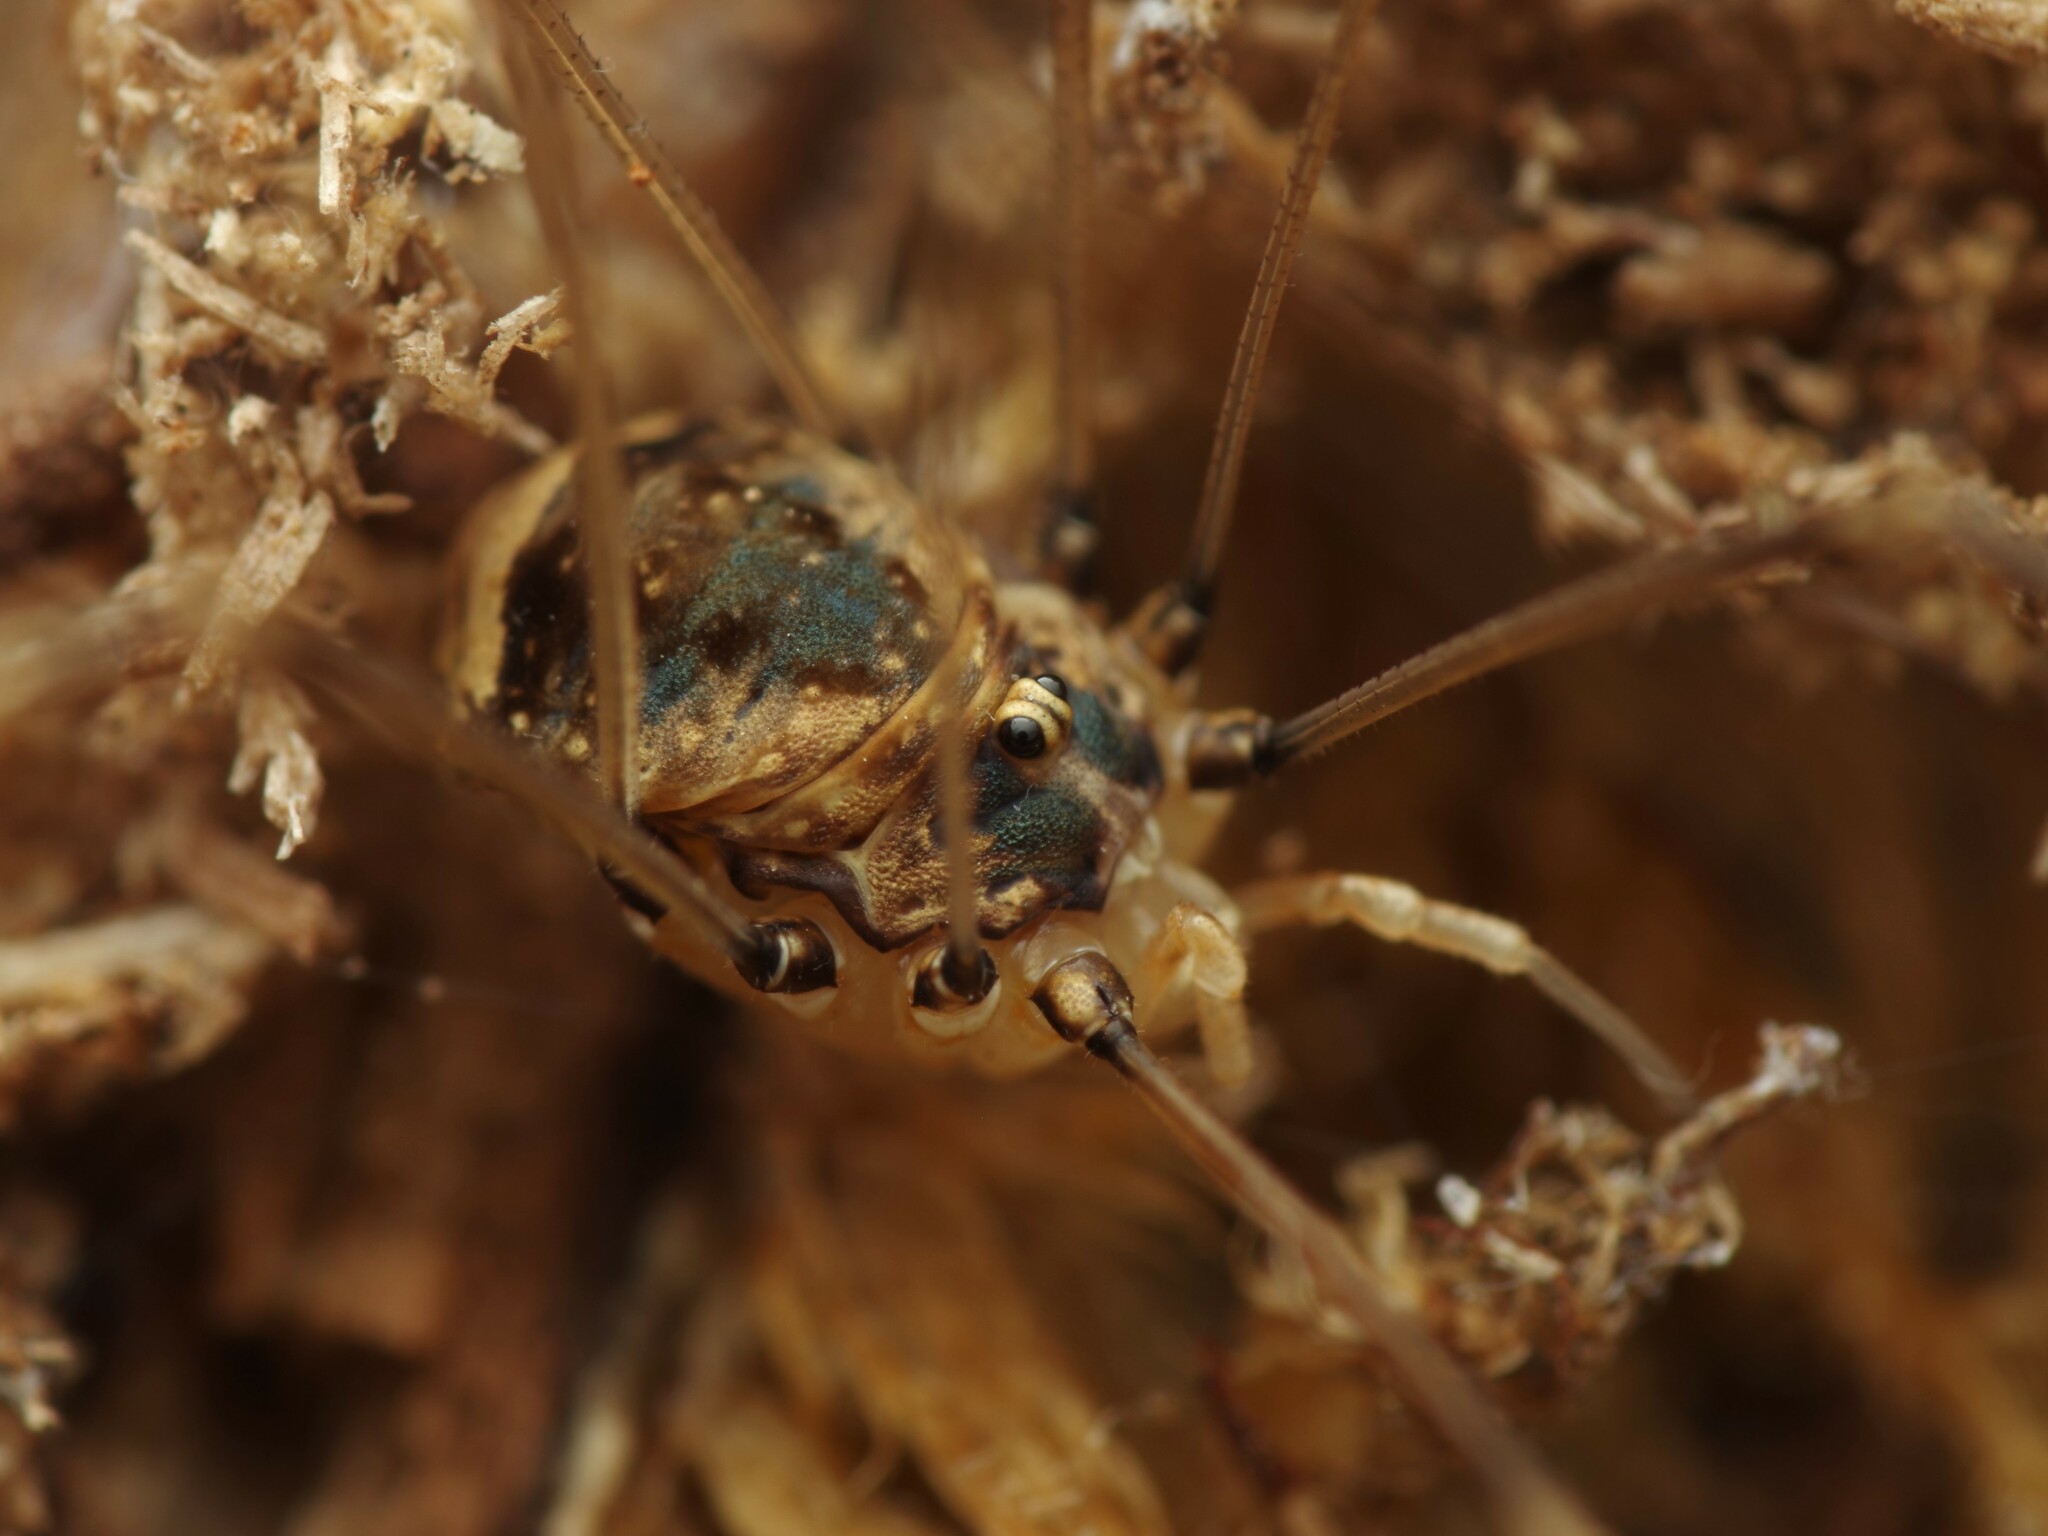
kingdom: Animalia
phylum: Arthropoda
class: Arachnida
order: Opiliones
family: Sclerosomatidae
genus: Leiobunum
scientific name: Leiobunum blackwalli
